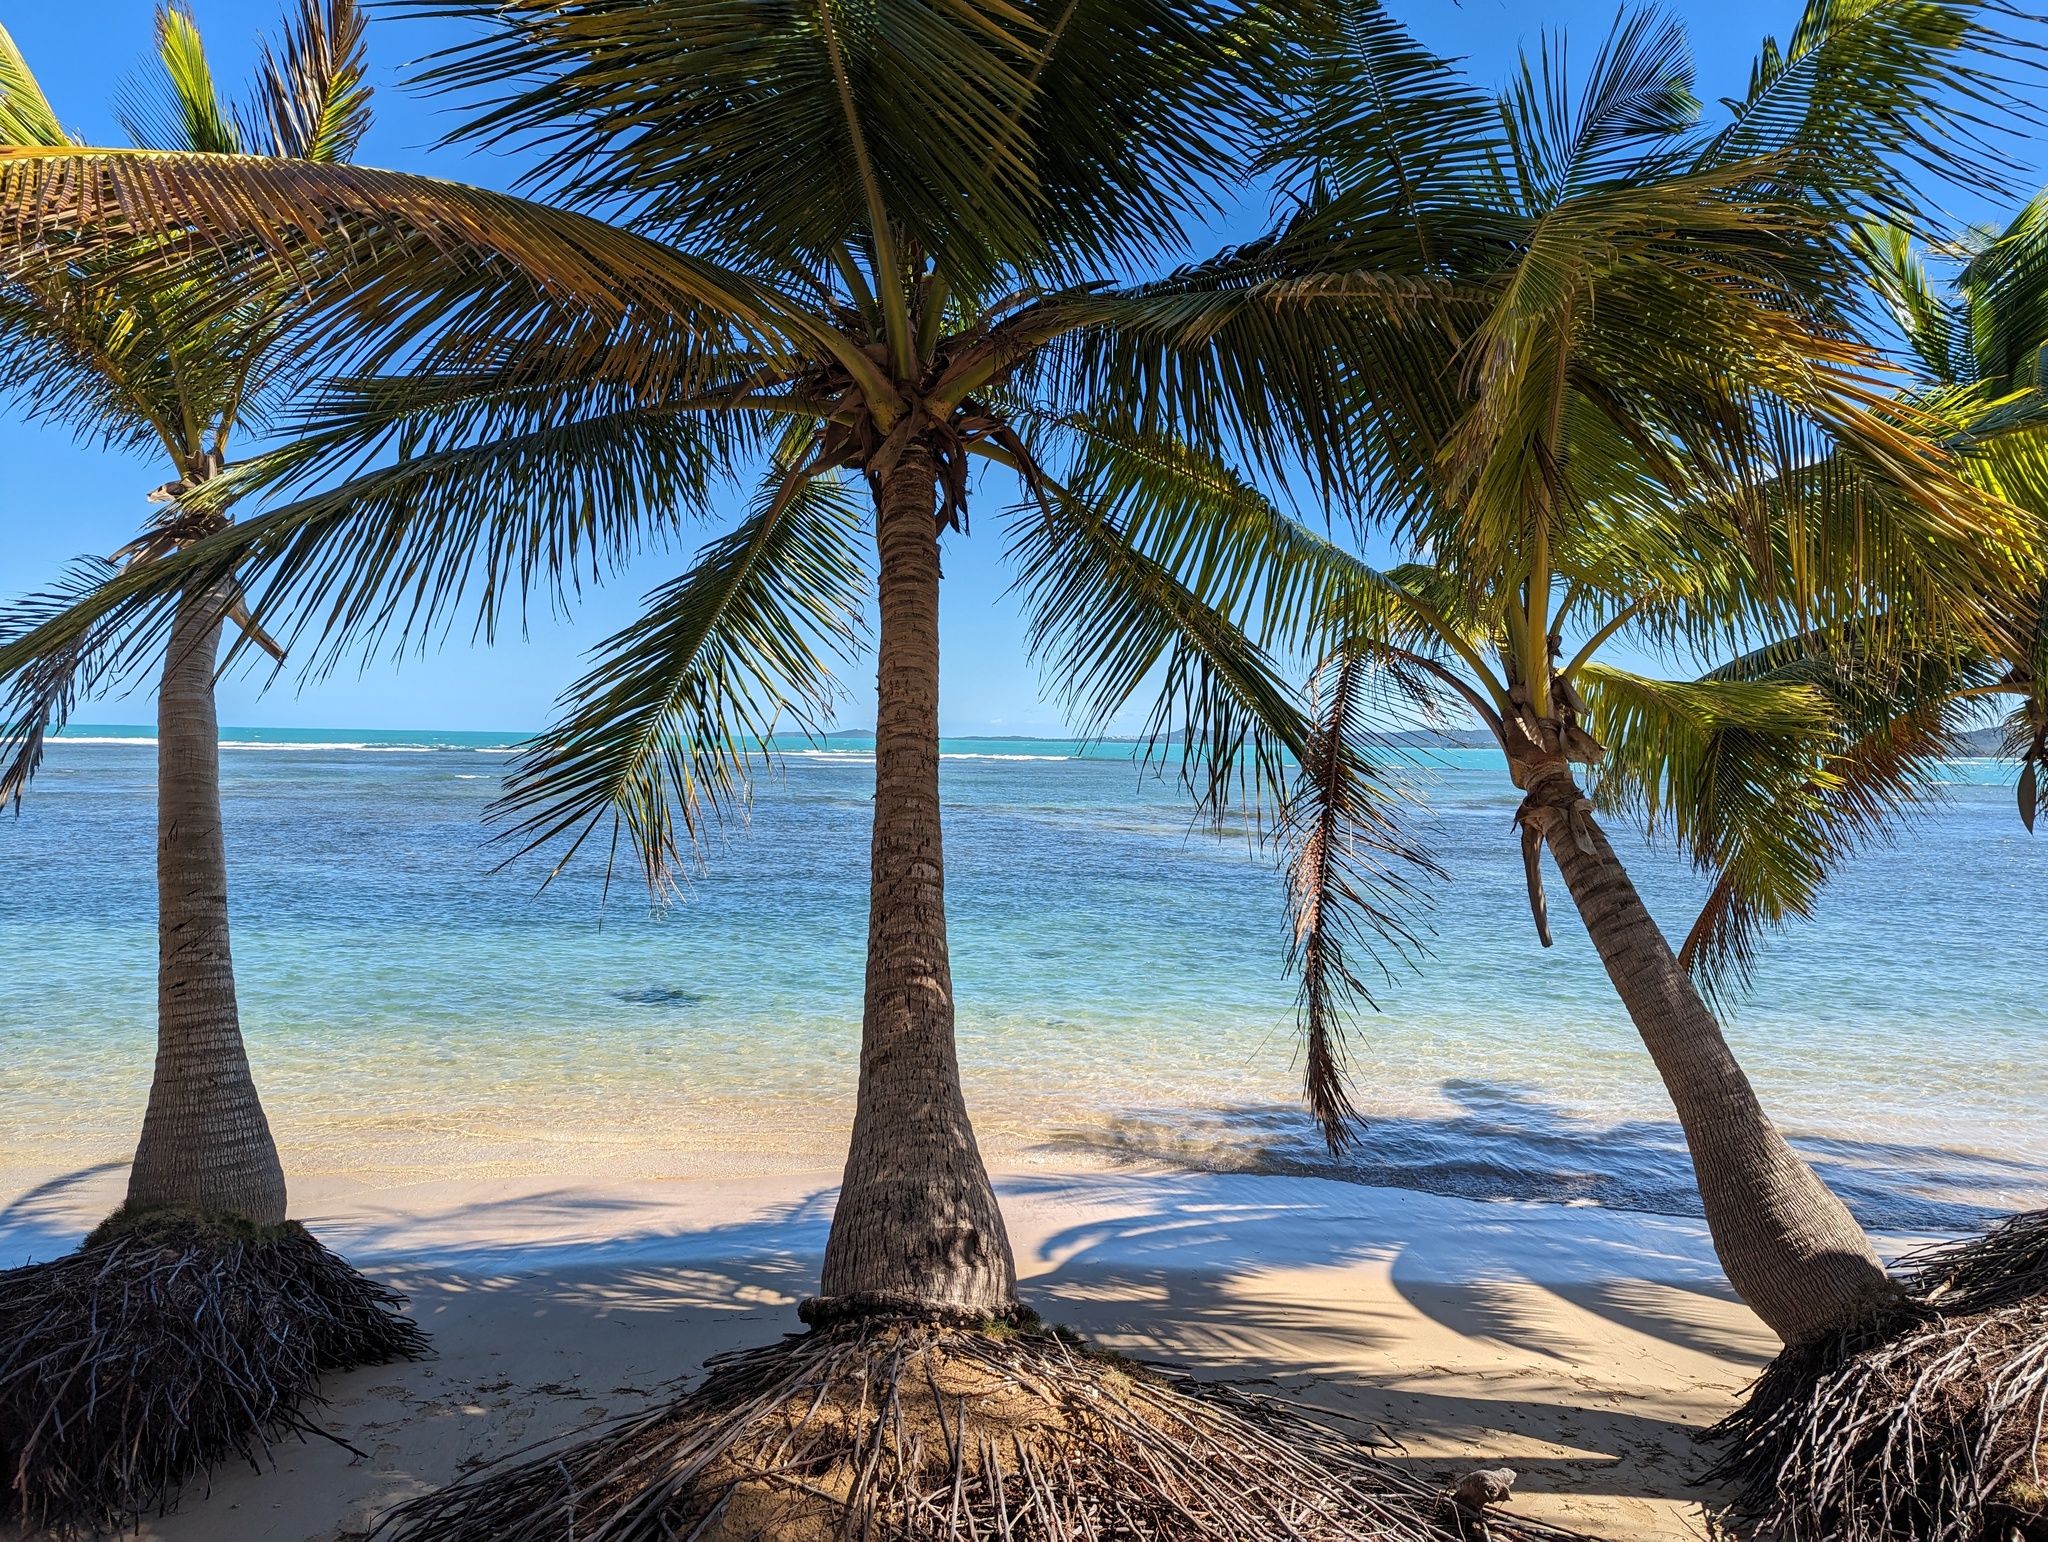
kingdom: Plantae
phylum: Tracheophyta
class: Liliopsida
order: Arecales
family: Arecaceae
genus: Cocos
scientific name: Cocos nucifera
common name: Coconut palm
